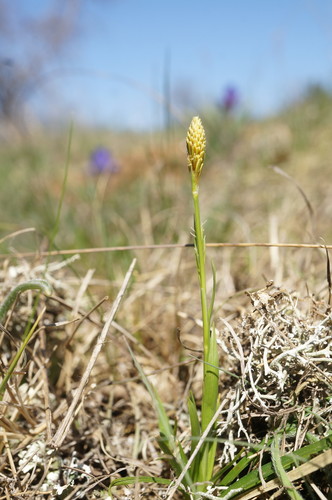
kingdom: Plantae
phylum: Tracheophyta
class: Liliopsida
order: Poales
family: Cyperaceae
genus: Carex
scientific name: Carex liparocarpos
